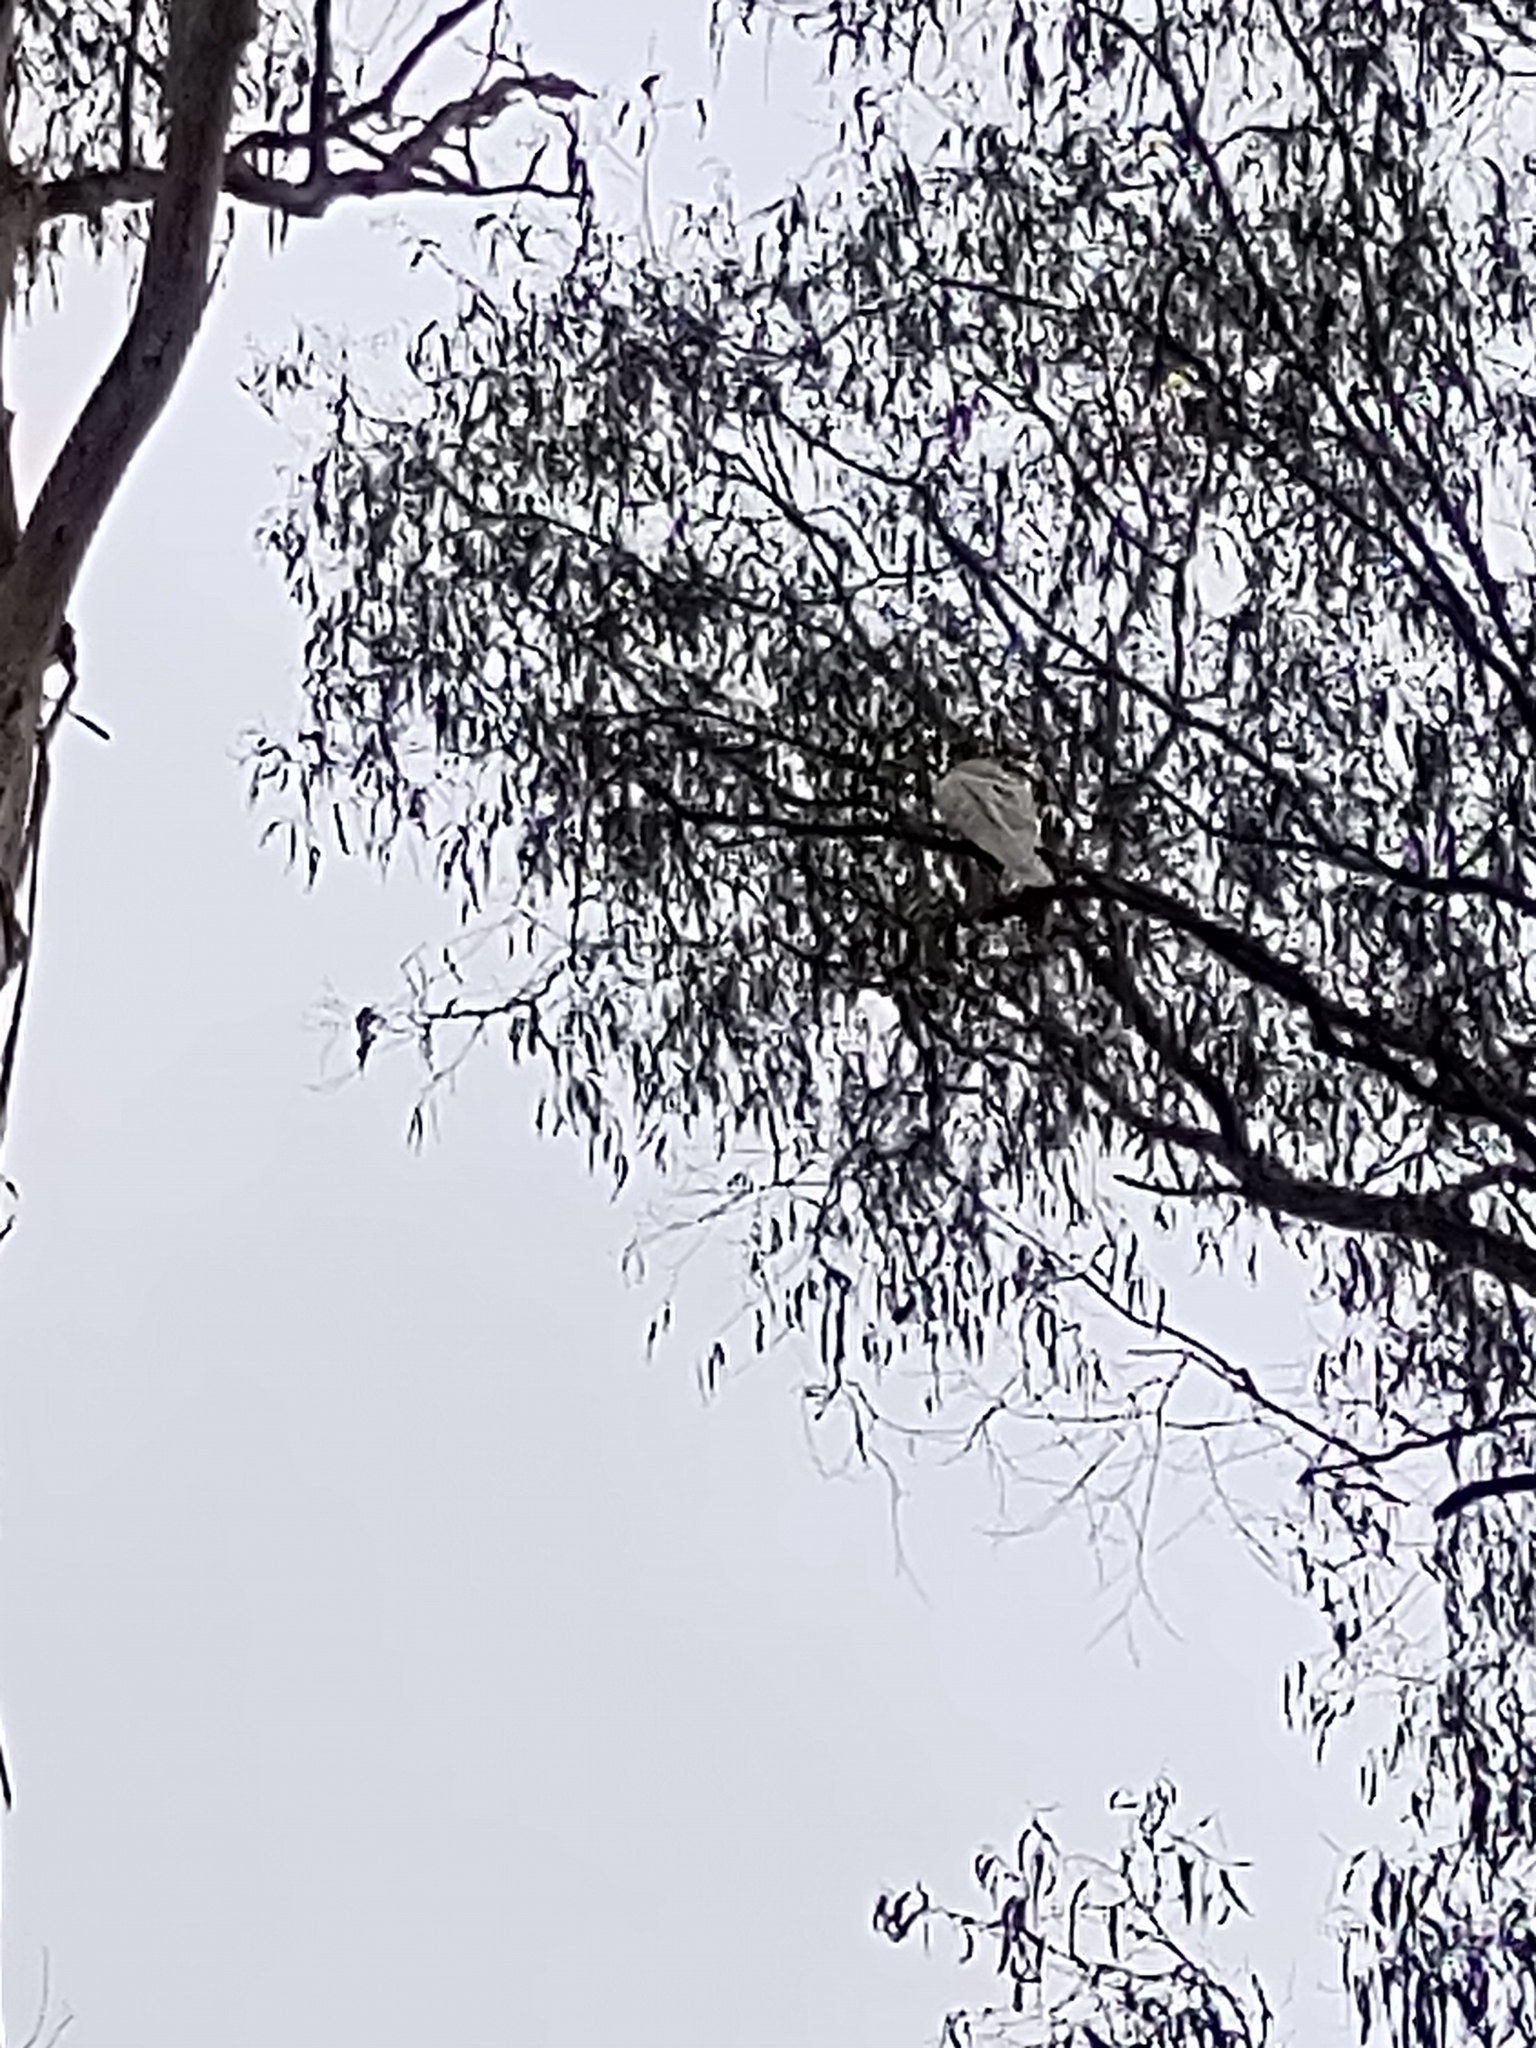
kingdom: Animalia
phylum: Chordata
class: Aves
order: Psittaciformes
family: Psittacidae
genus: Cacatua
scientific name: Cacatua galerita
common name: Sulphur-crested cockatoo
